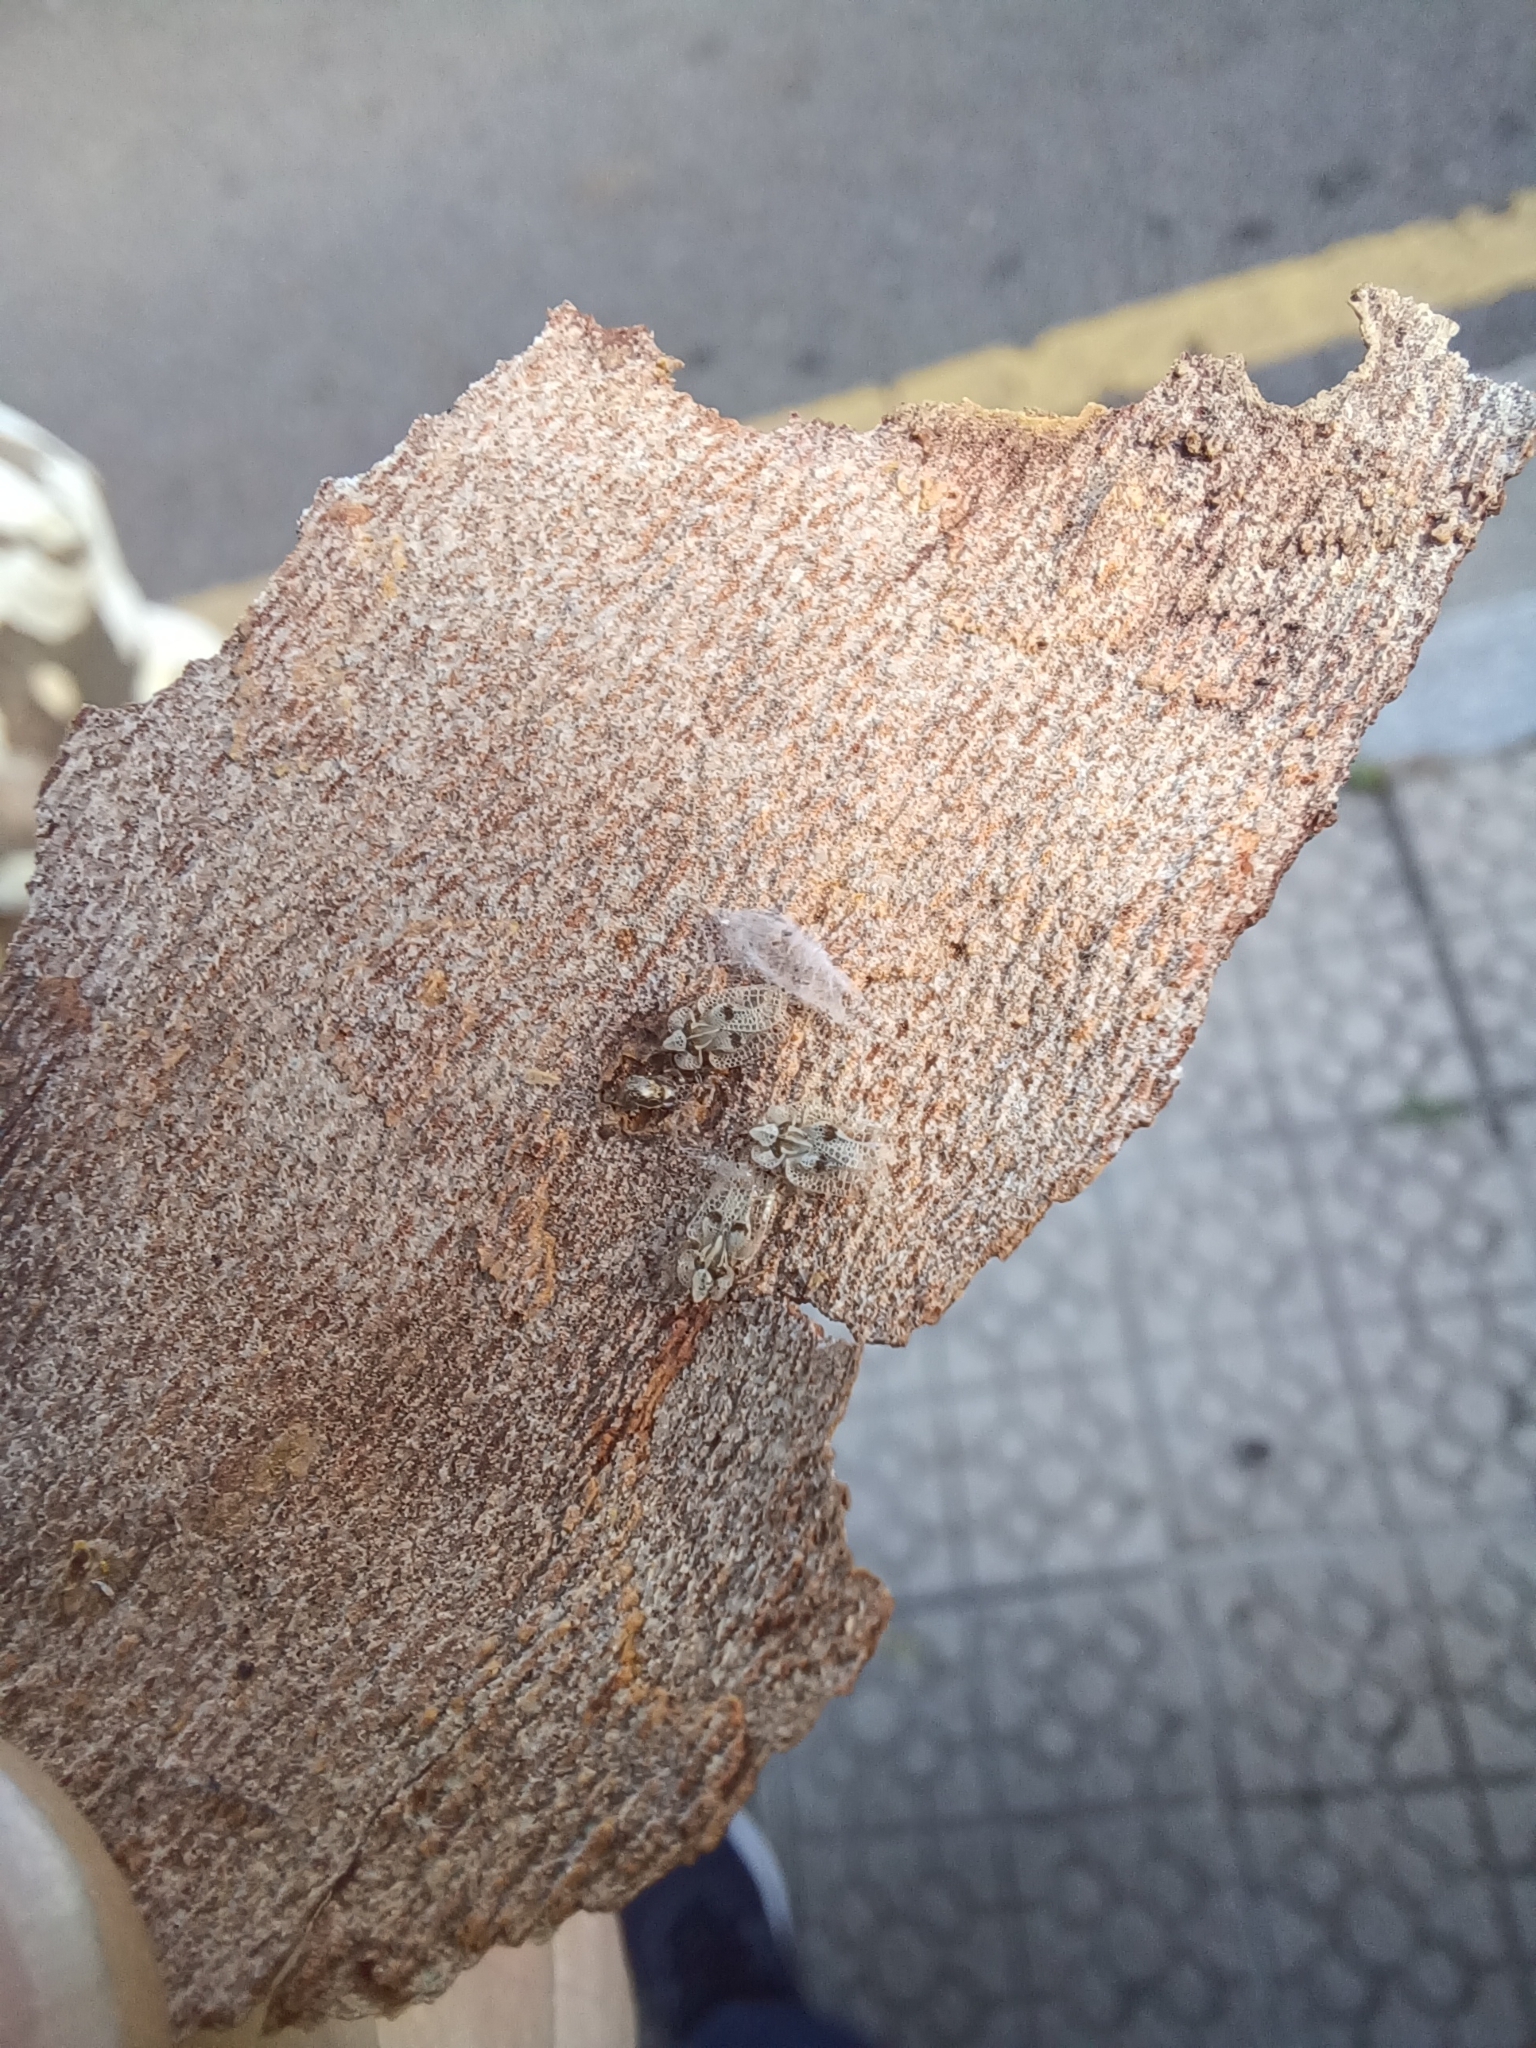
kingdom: Animalia
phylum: Arthropoda
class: Insecta
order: Hemiptera
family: Tingidae
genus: Corythucha
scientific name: Corythucha ciliata
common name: Sycamore lace bug
